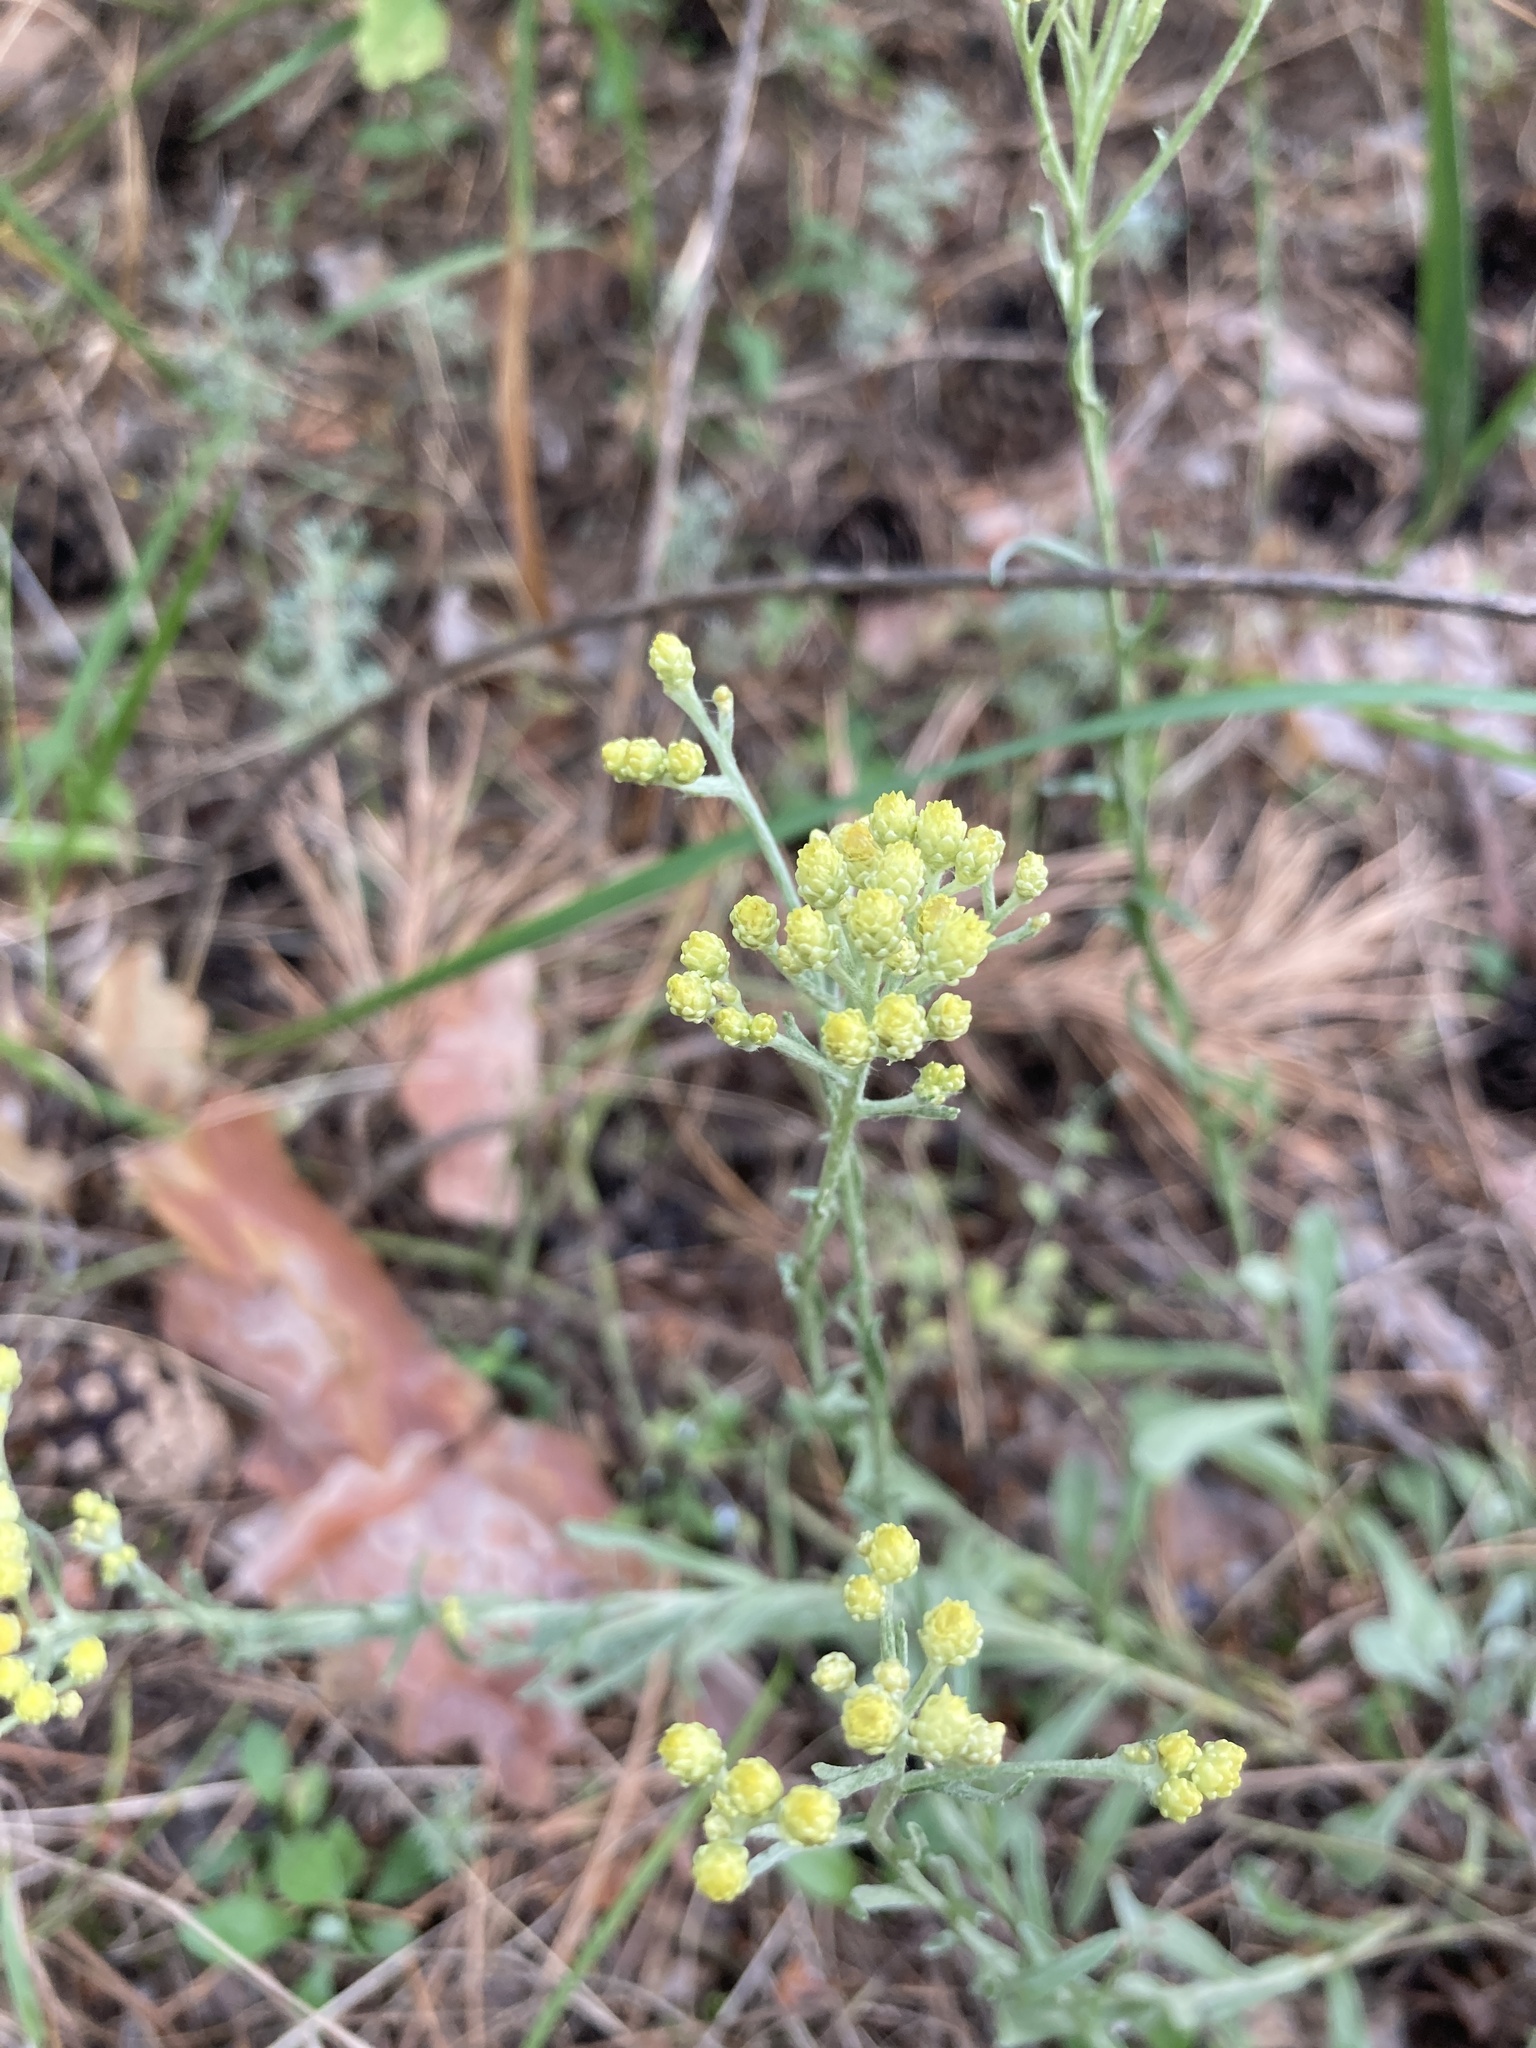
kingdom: Plantae
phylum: Tracheophyta
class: Magnoliopsida
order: Asterales
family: Asteraceae
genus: Helichrysum
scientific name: Helichrysum arenarium
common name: Strawflower
